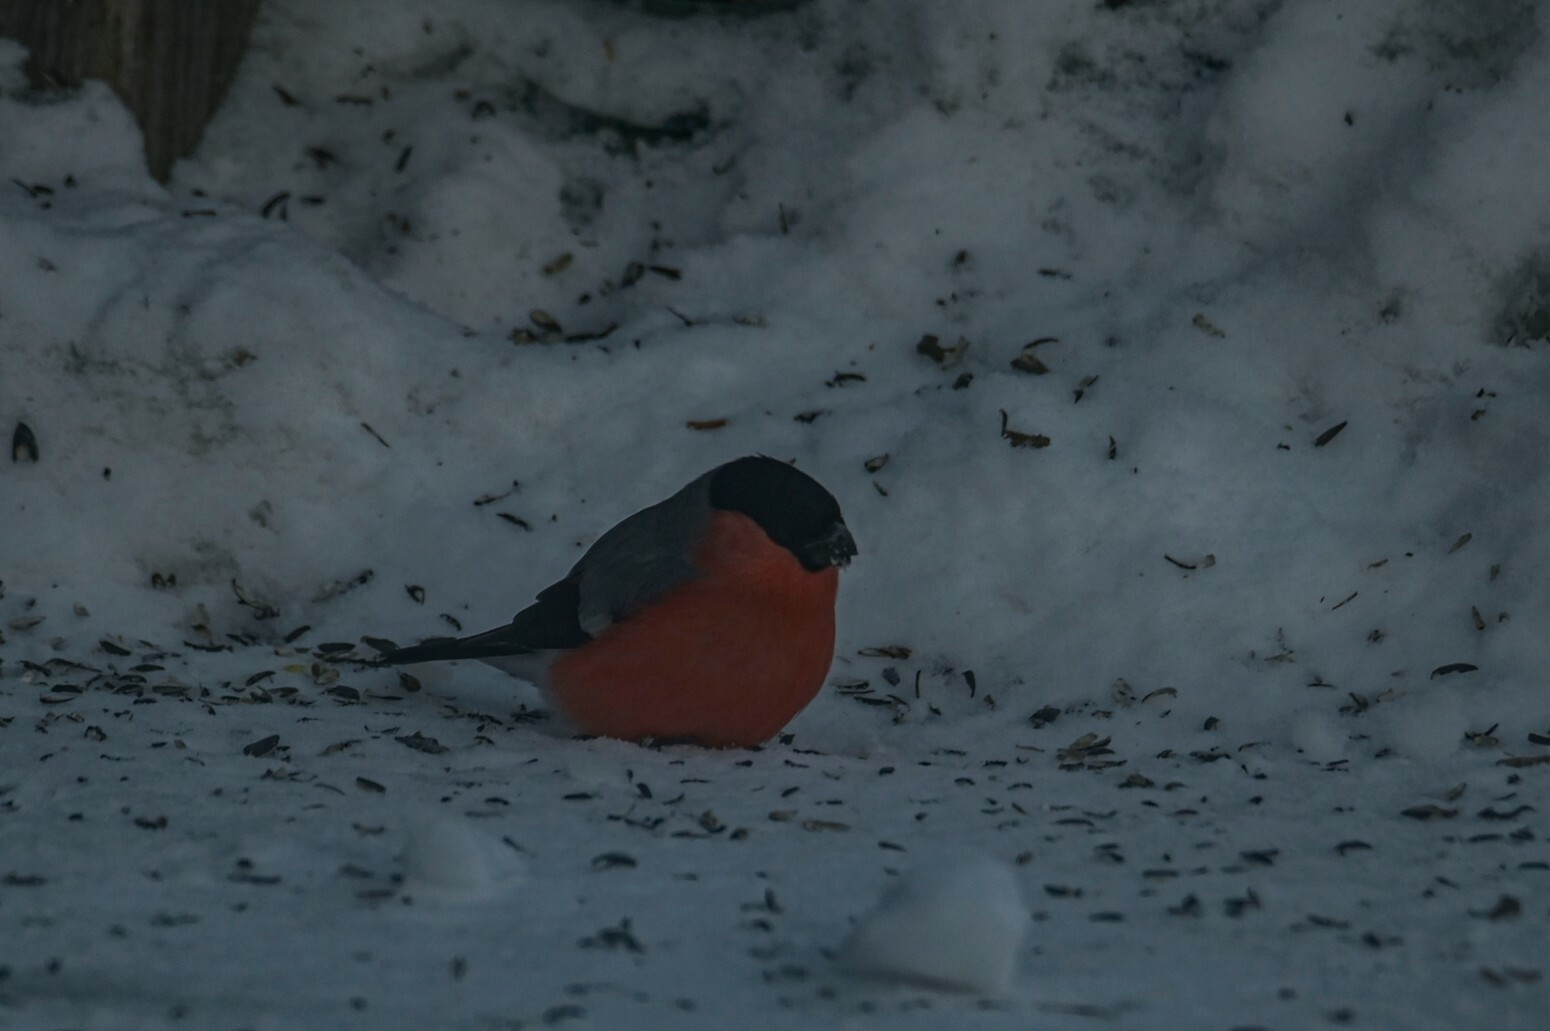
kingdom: Animalia
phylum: Chordata
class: Aves
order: Passeriformes
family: Fringillidae
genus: Pyrrhula
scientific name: Pyrrhula pyrrhula
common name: Eurasian bullfinch
